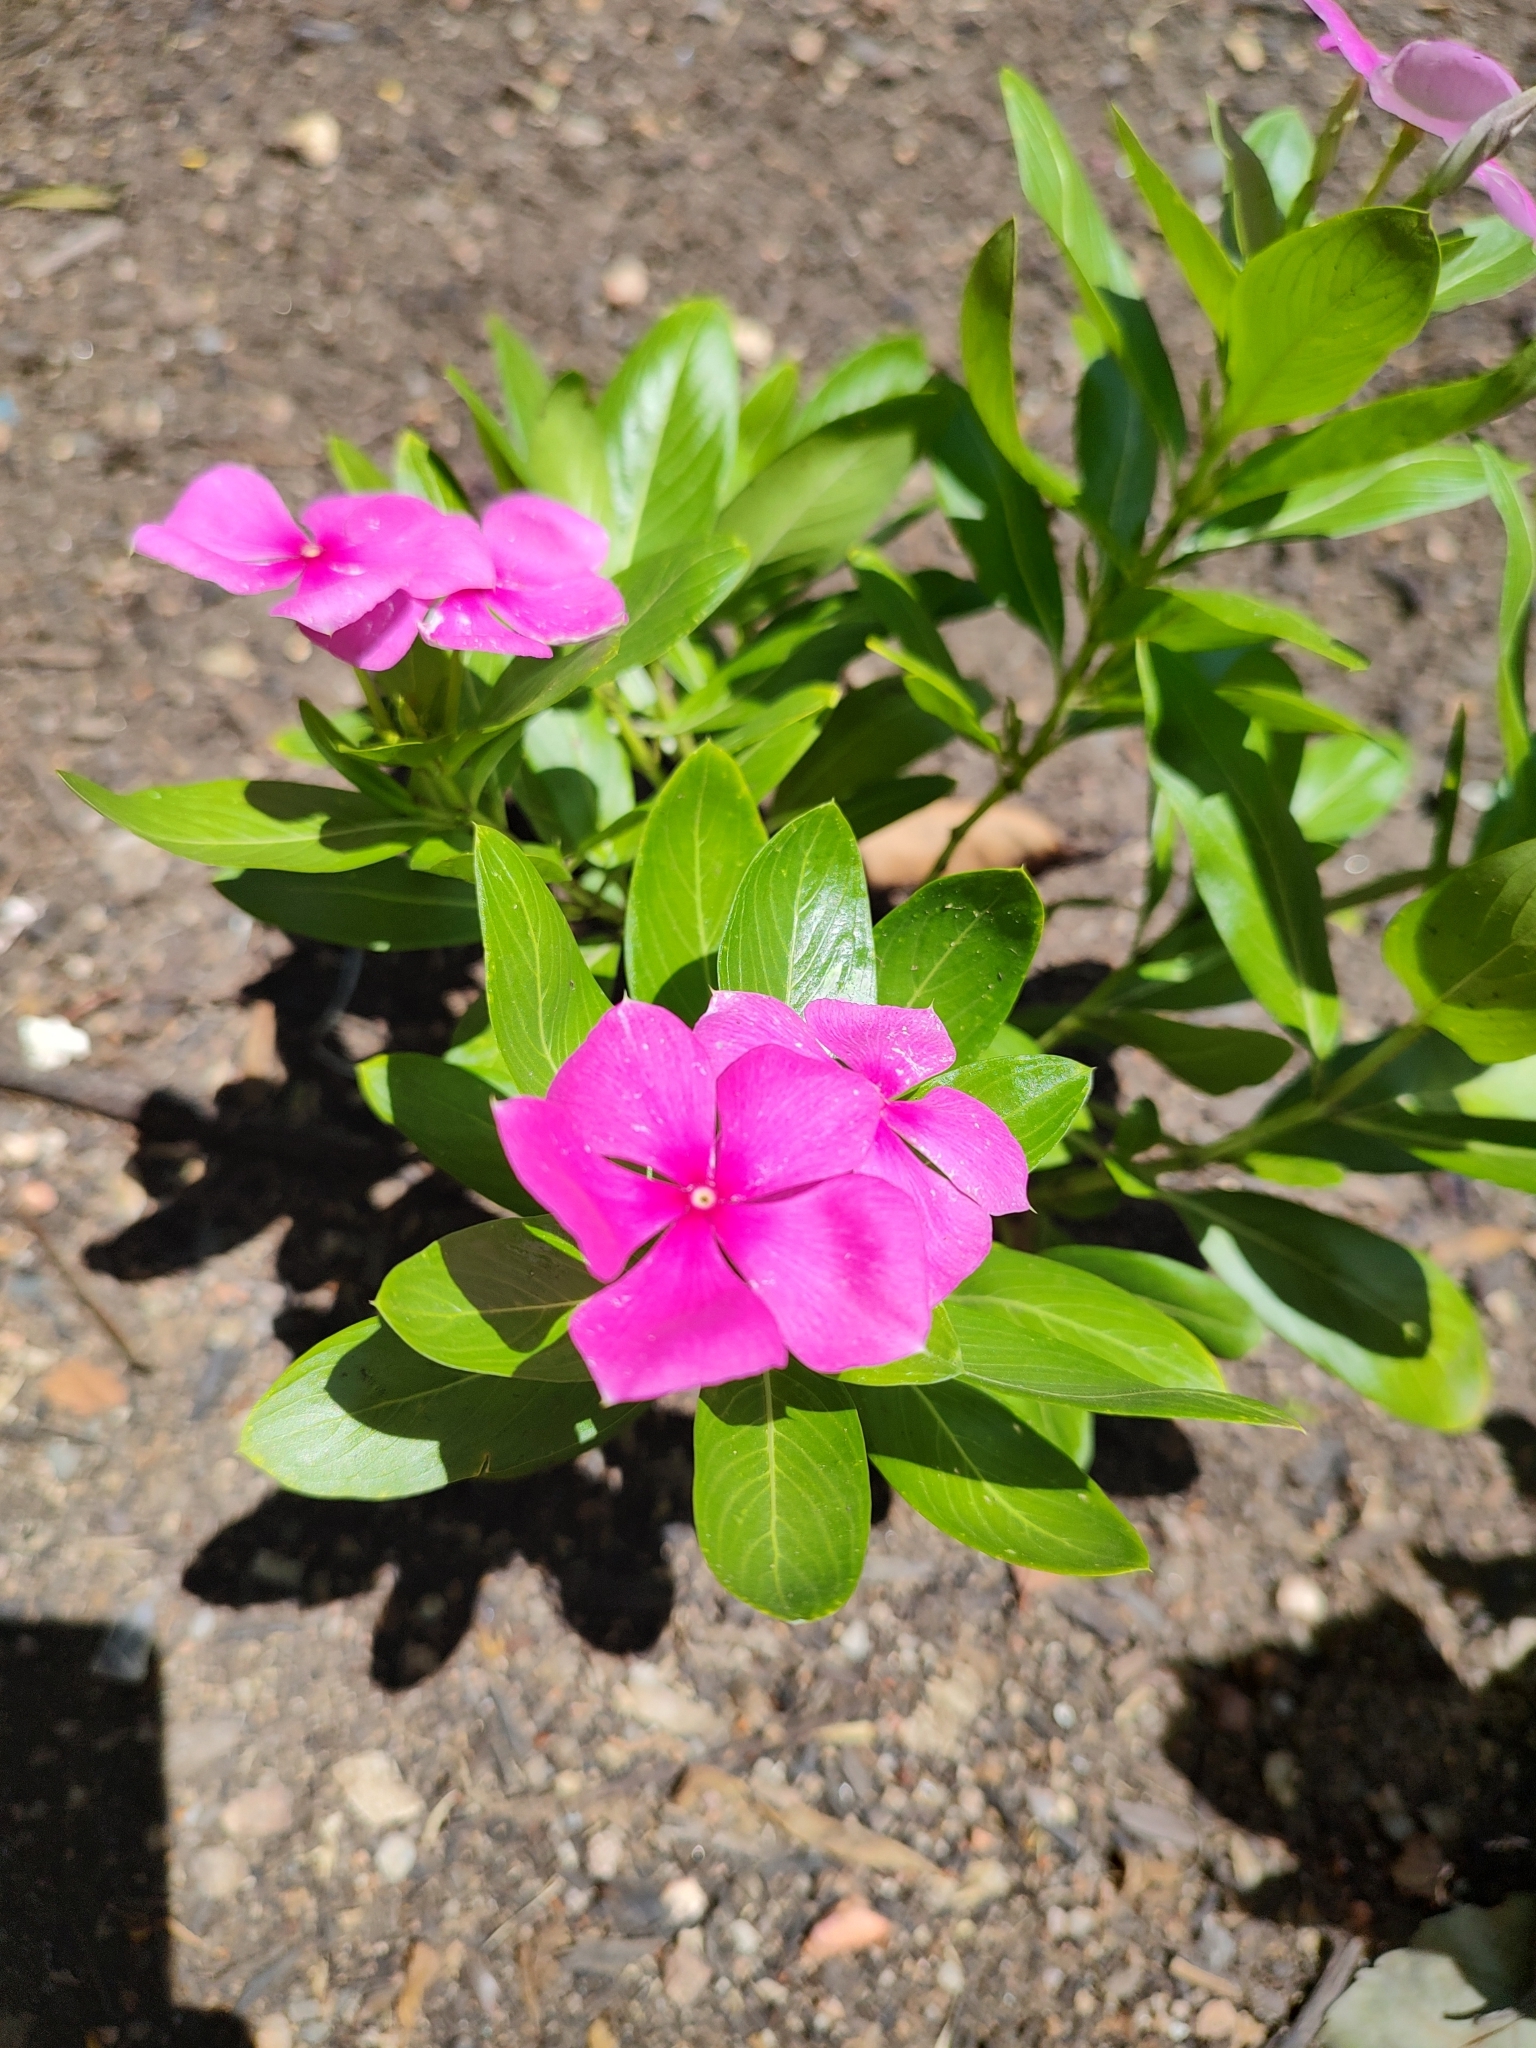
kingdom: Plantae
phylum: Tracheophyta
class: Magnoliopsida
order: Gentianales
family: Apocynaceae
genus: Catharanthus
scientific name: Catharanthus roseus
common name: Madagascar periwinkle
